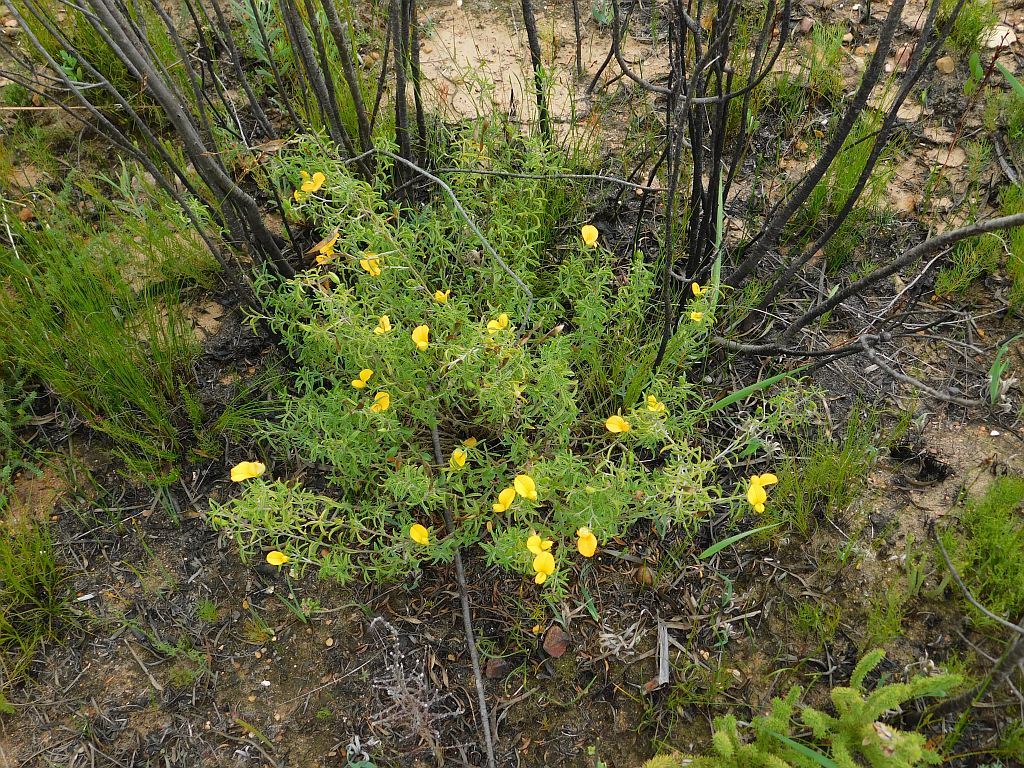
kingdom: Plantae
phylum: Tracheophyta
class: Magnoliopsida
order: Fabales
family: Fabaceae
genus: Argyrolobium
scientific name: Argyrolobium pachyphyllum
